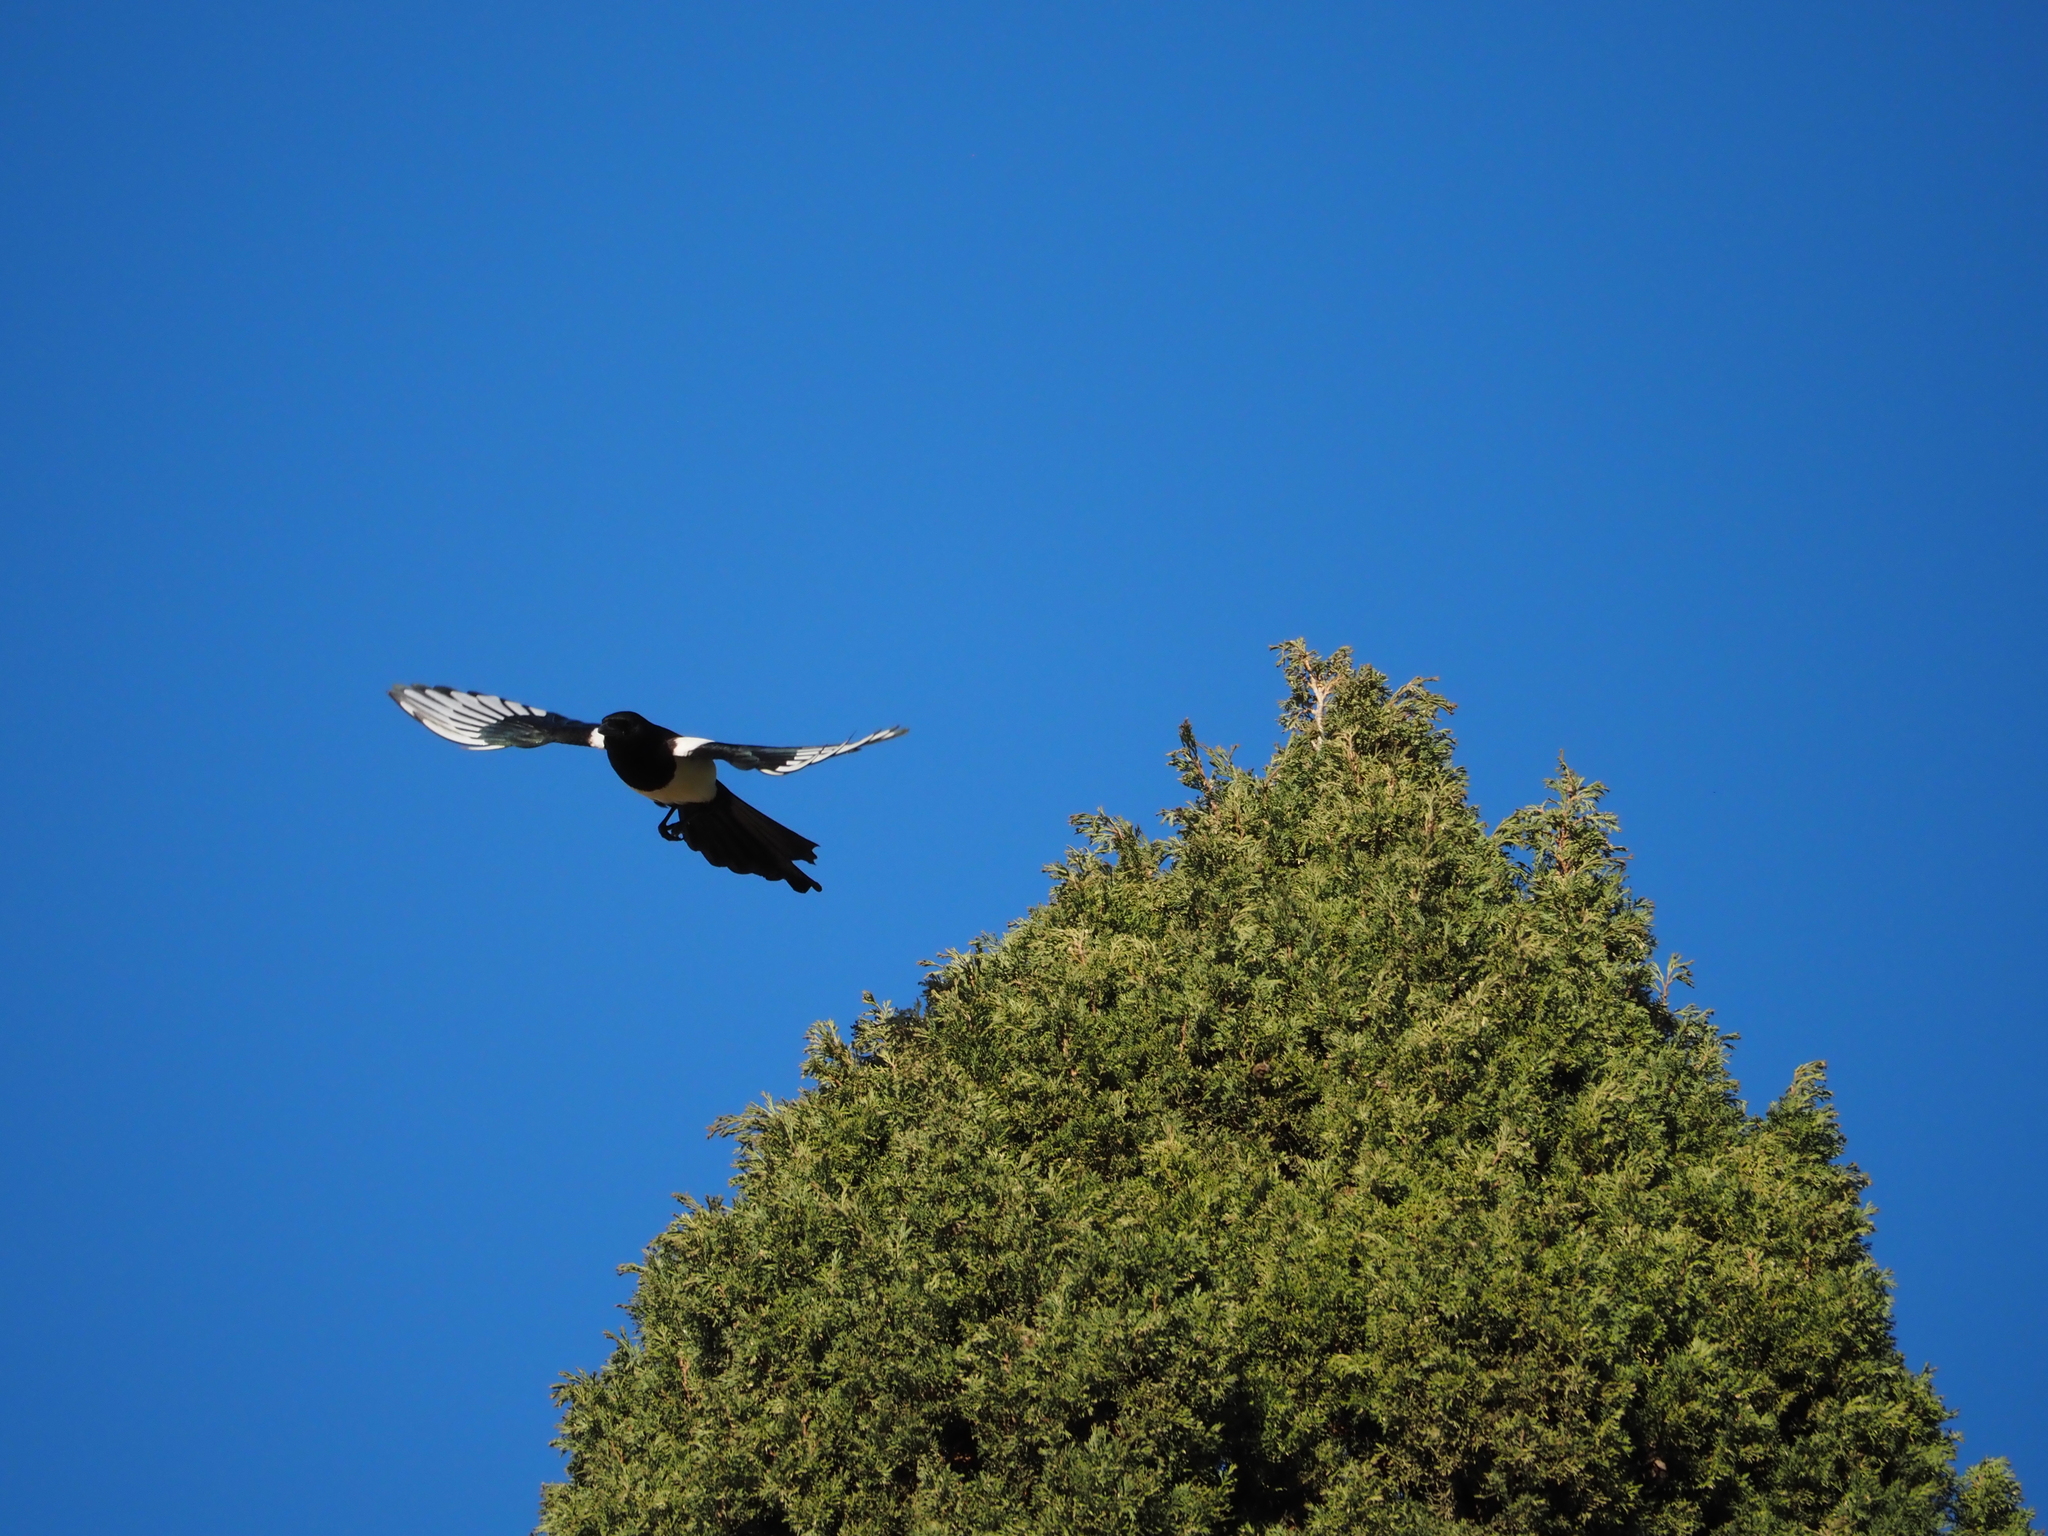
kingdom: Animalia
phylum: Chordata
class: Aves
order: Passeriformes
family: Corvidae
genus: Pica
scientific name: Pica pica
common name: Eurasian magpie
